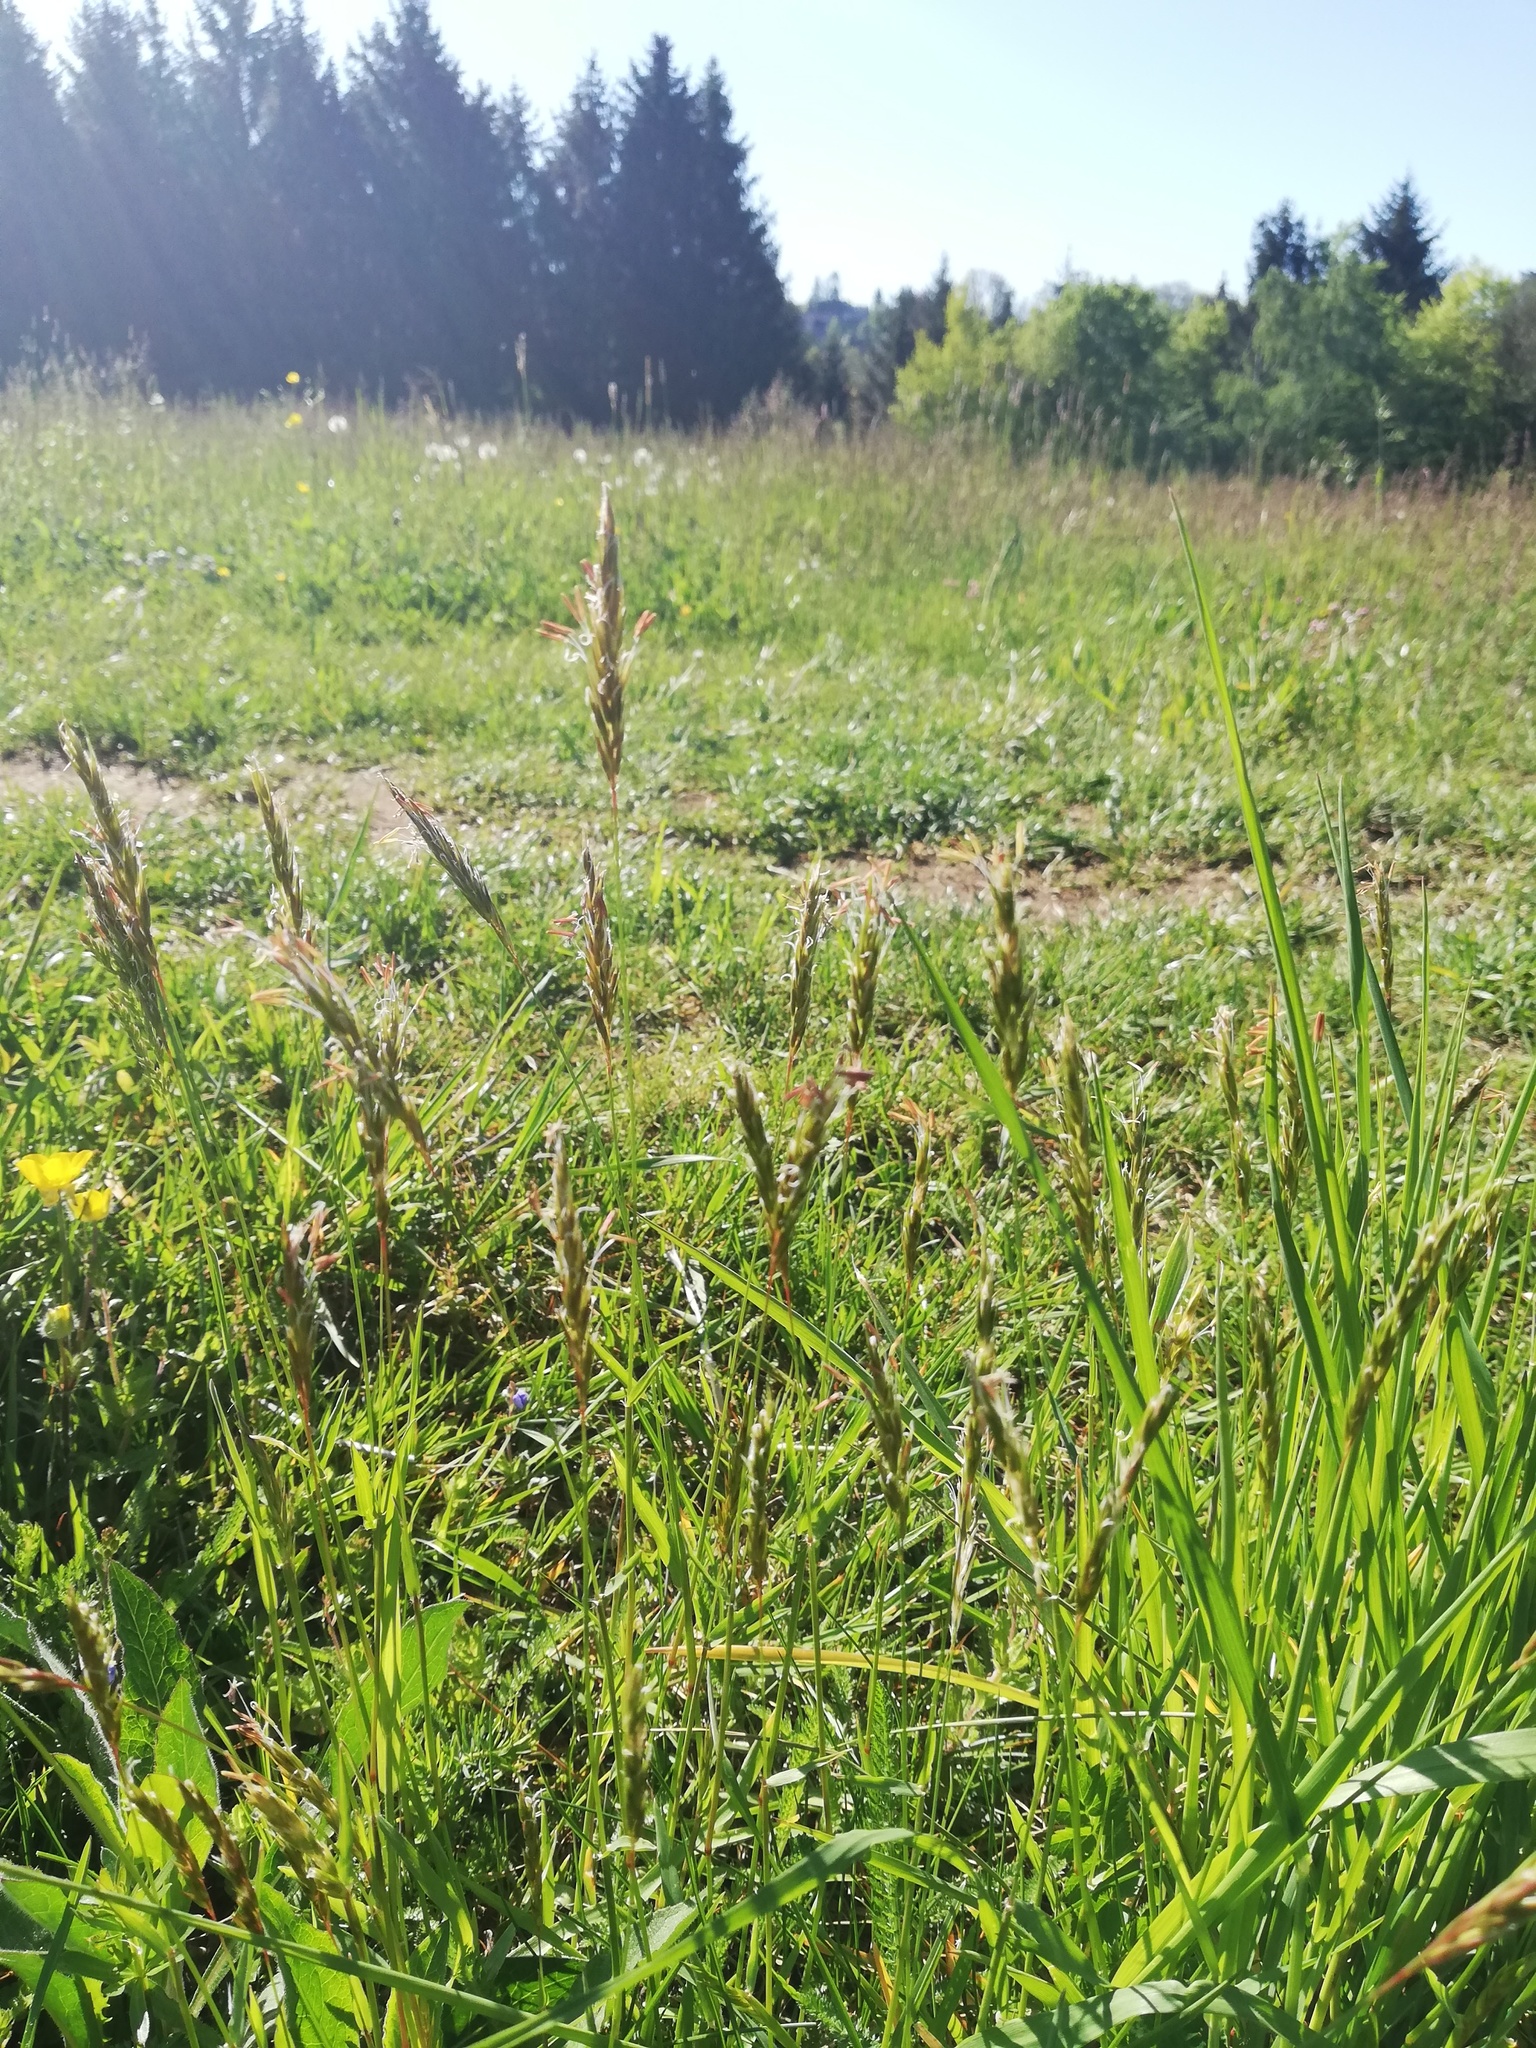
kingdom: Plantae
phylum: Tracheophyta
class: Liliopsida
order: Poales
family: Poaceae
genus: Anthoxanthum
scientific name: Anthoxanthum odoratum
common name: Sweet vernalgrass
